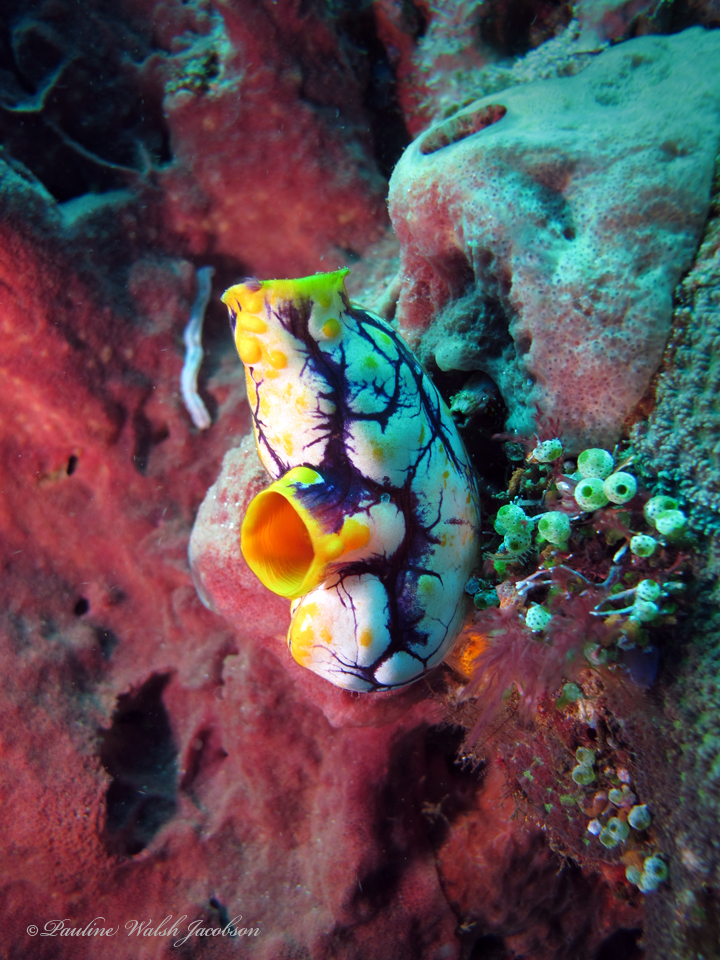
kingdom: Animalia
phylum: Chordata
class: Ascidiacea
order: Stolidobranchia
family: Styelidae
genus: Polycarpa
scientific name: Polycarpa aurata
